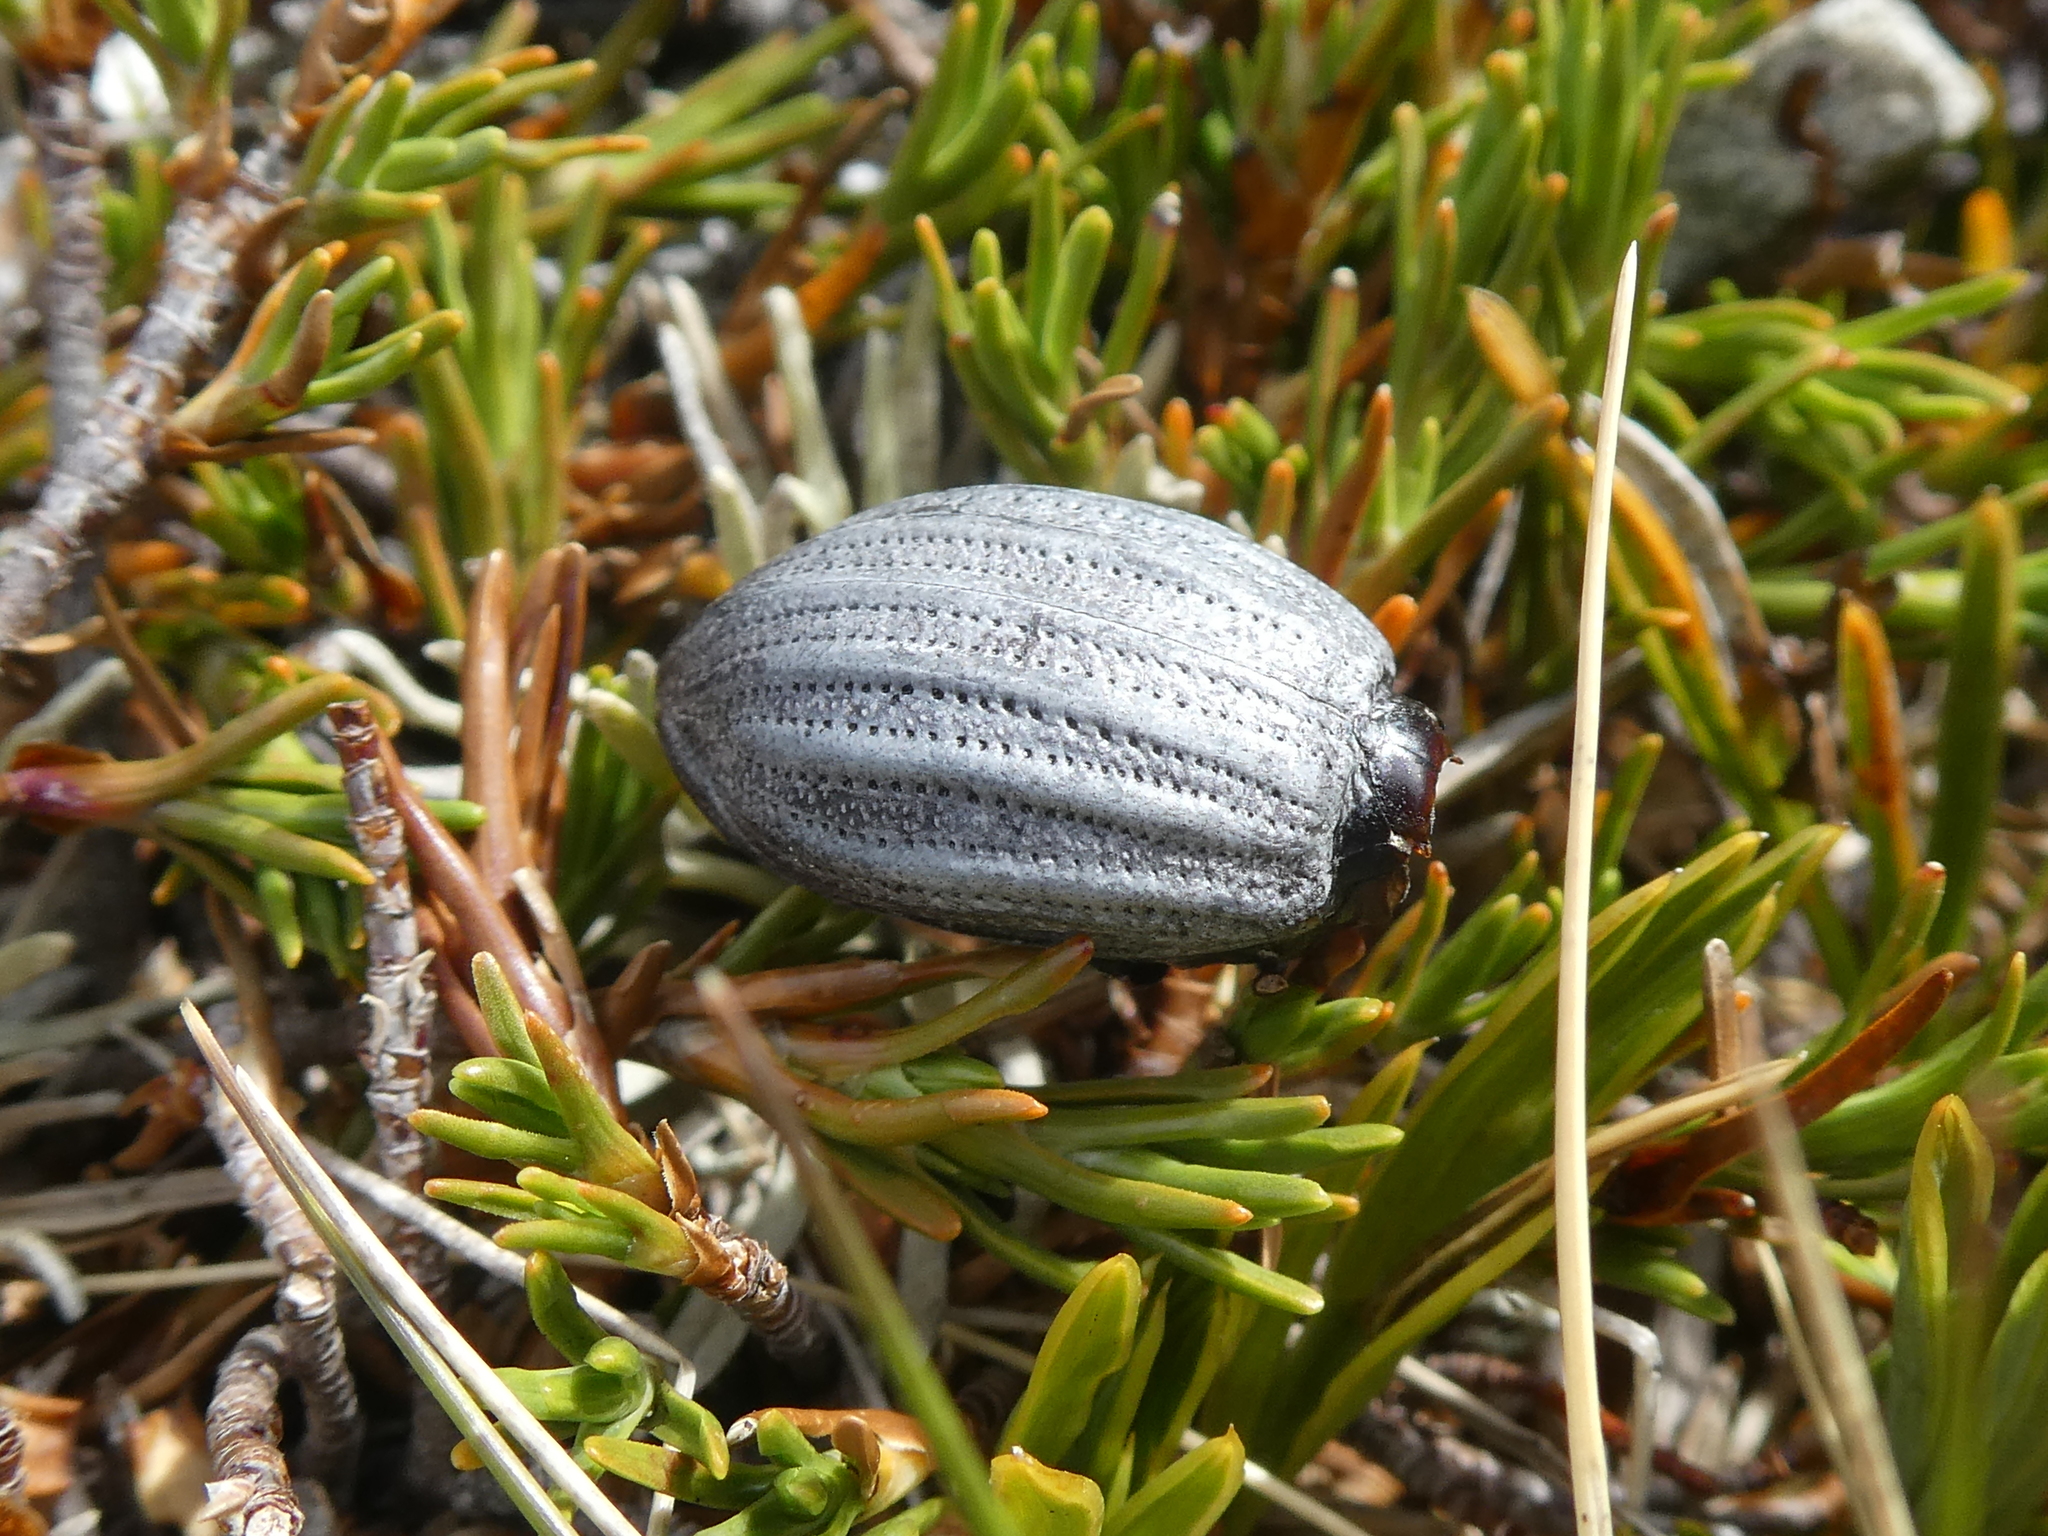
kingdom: Animalia
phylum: Arthropoda
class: Insecta
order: Coleoptera
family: Curculionidae
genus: Lyperobius
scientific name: Lyperobius fallax
